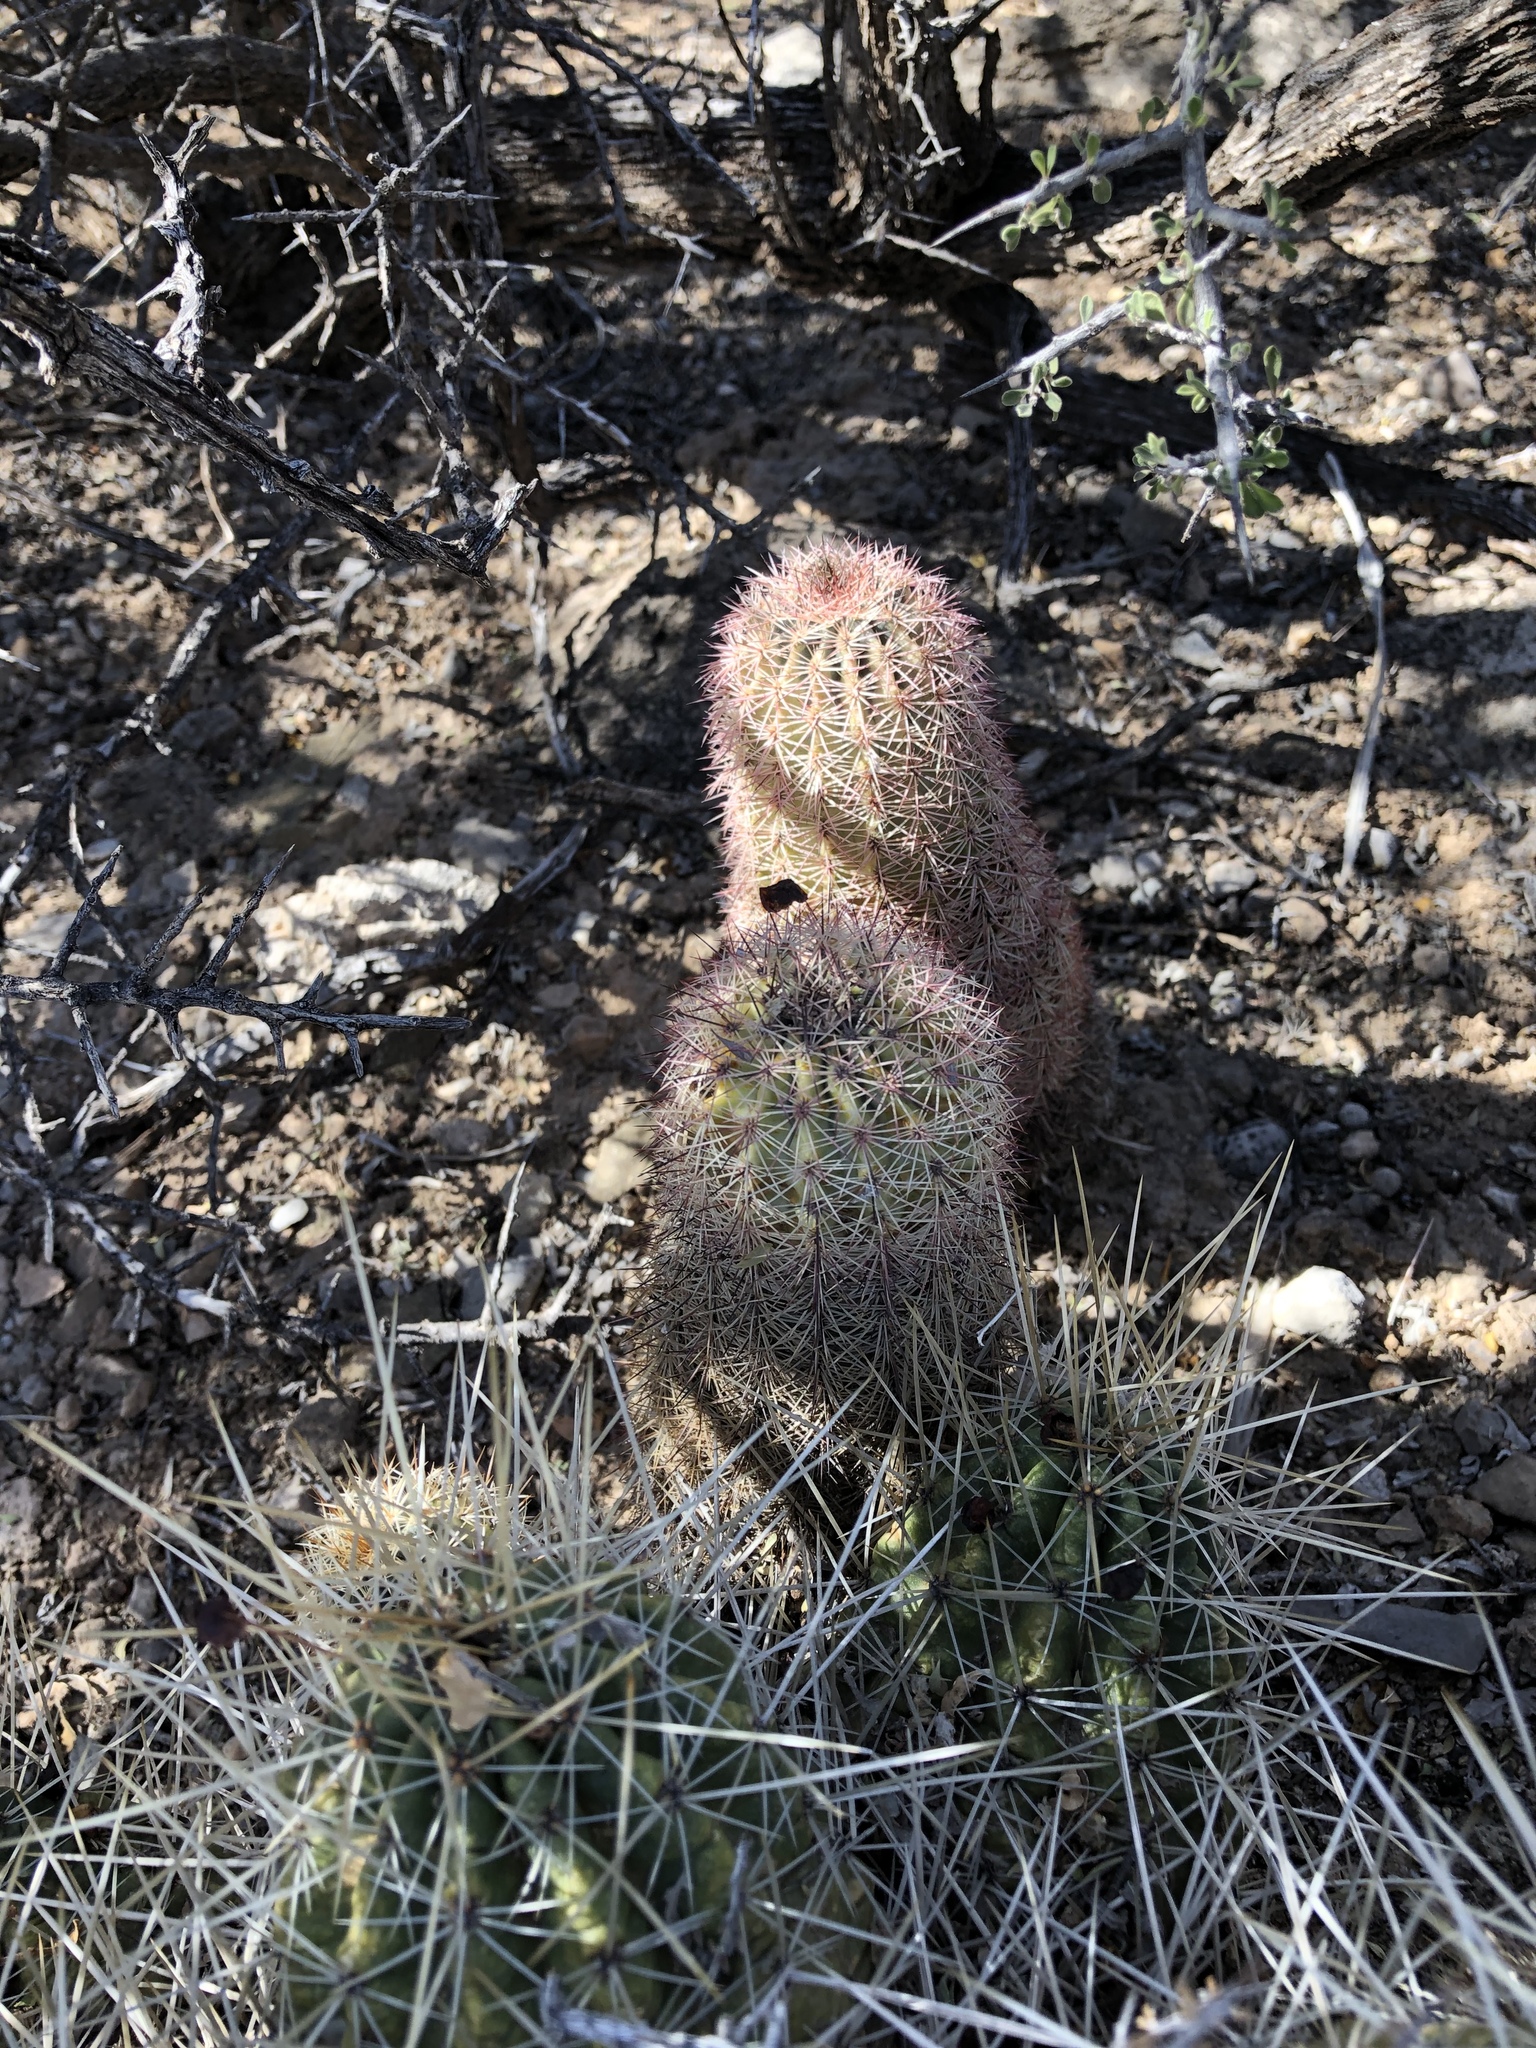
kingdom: Plantae
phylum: Tracheophyta
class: Magnoliopsida
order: Caryophyllales
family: Cactaceae
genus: Echinocereus
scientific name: Echinocereus dasyacanthus
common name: Spiny hedgehog cactus
